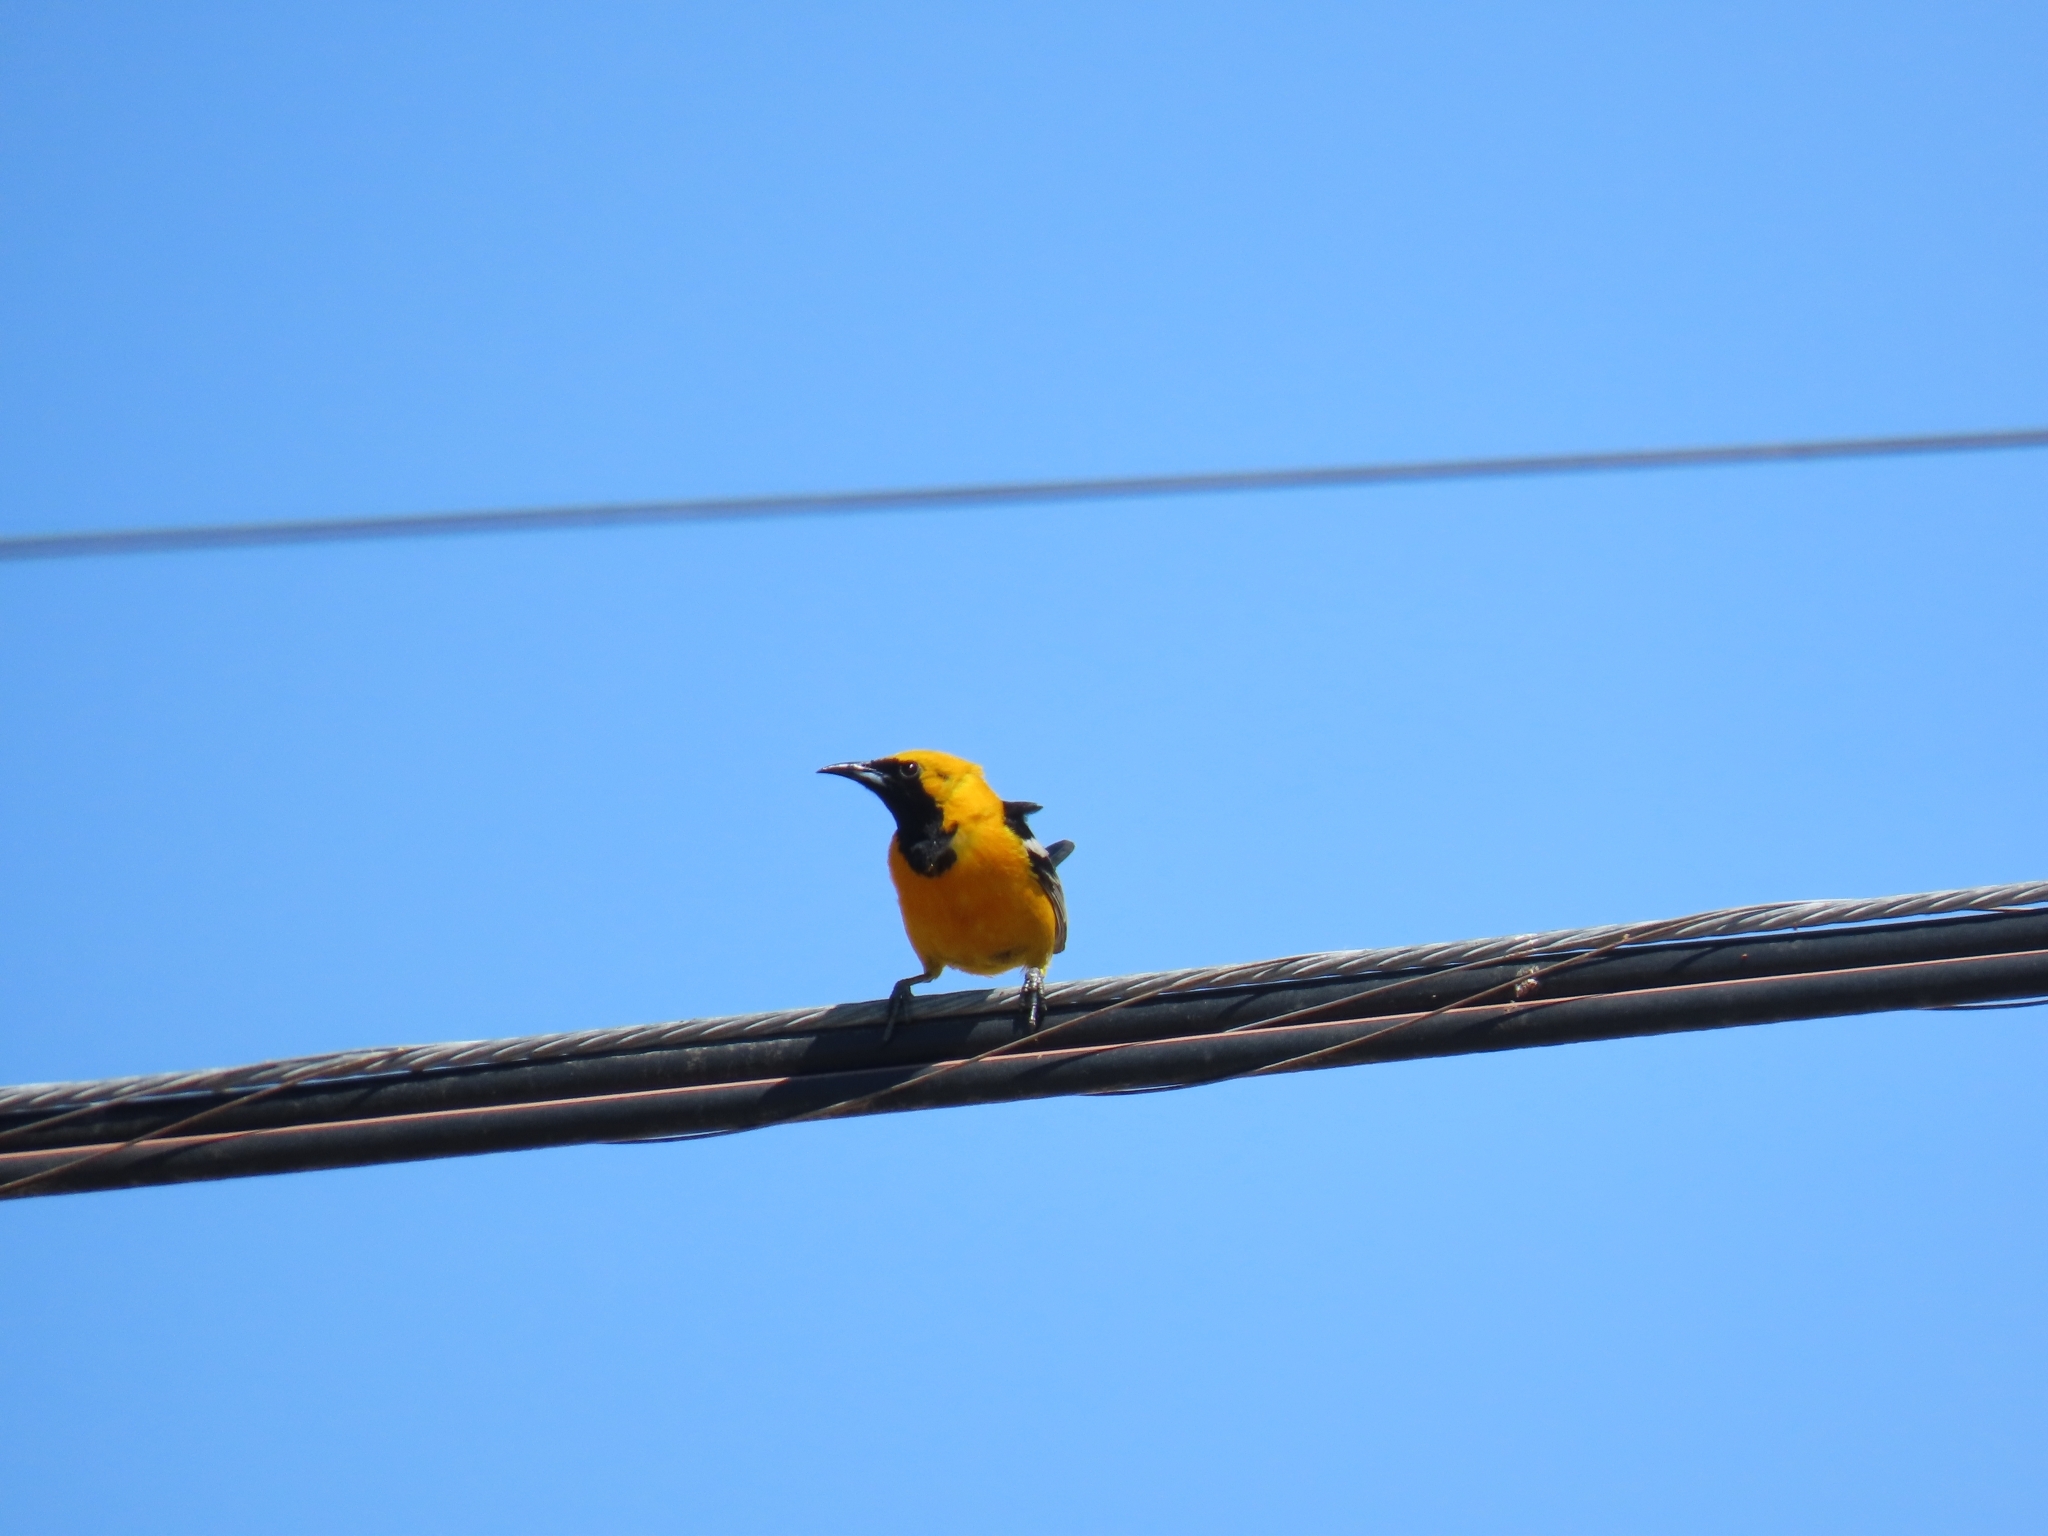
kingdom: Animalia
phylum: Chordata
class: Aves
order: Passeriformes
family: Icteridae
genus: Icterus
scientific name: Icterus cucullatus
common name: Hooded oriole
